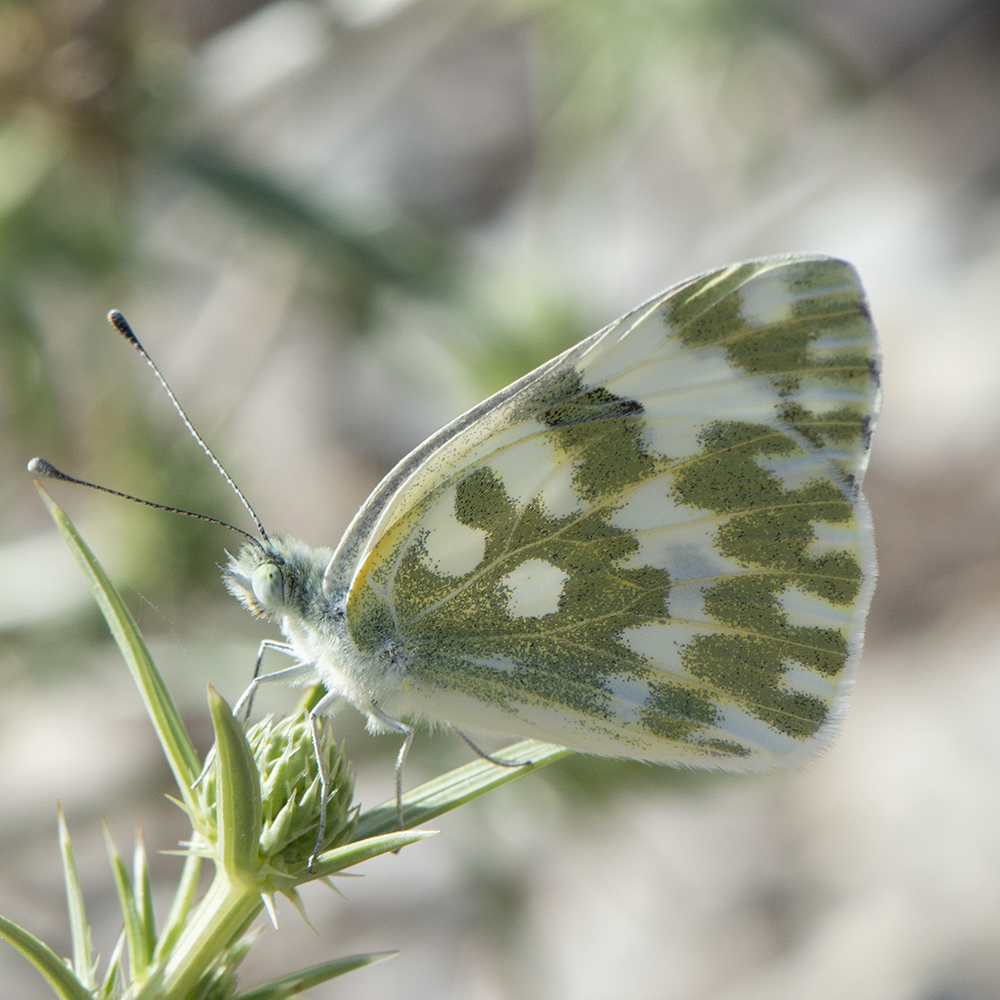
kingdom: Animalia
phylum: Arthropoda
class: Insecta
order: Lepidoptera
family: Pieridae
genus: Pontia
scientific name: Pontia edusa
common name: Eastern bath white
